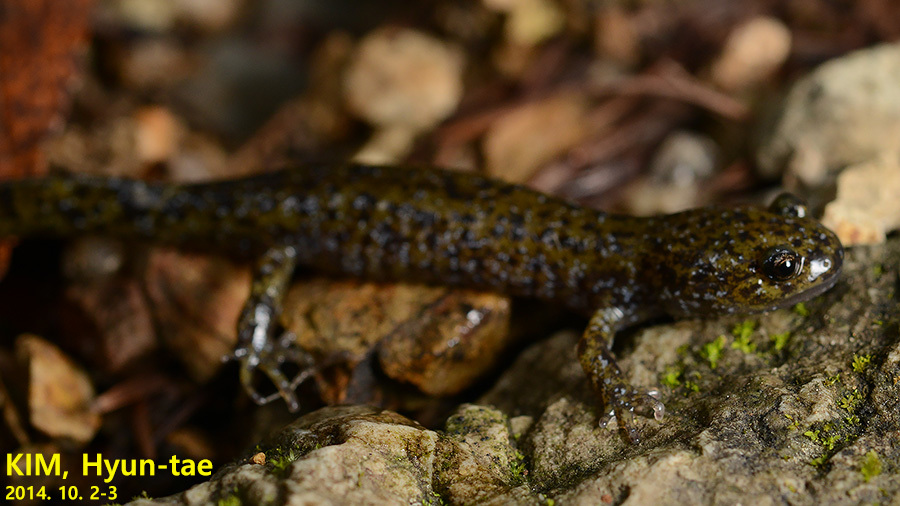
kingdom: Animalia
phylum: Chordata
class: Amphibia
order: Caudata
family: Hynobiidae
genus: Hynobius
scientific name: Hynobius leechii
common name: Gensan salamander
